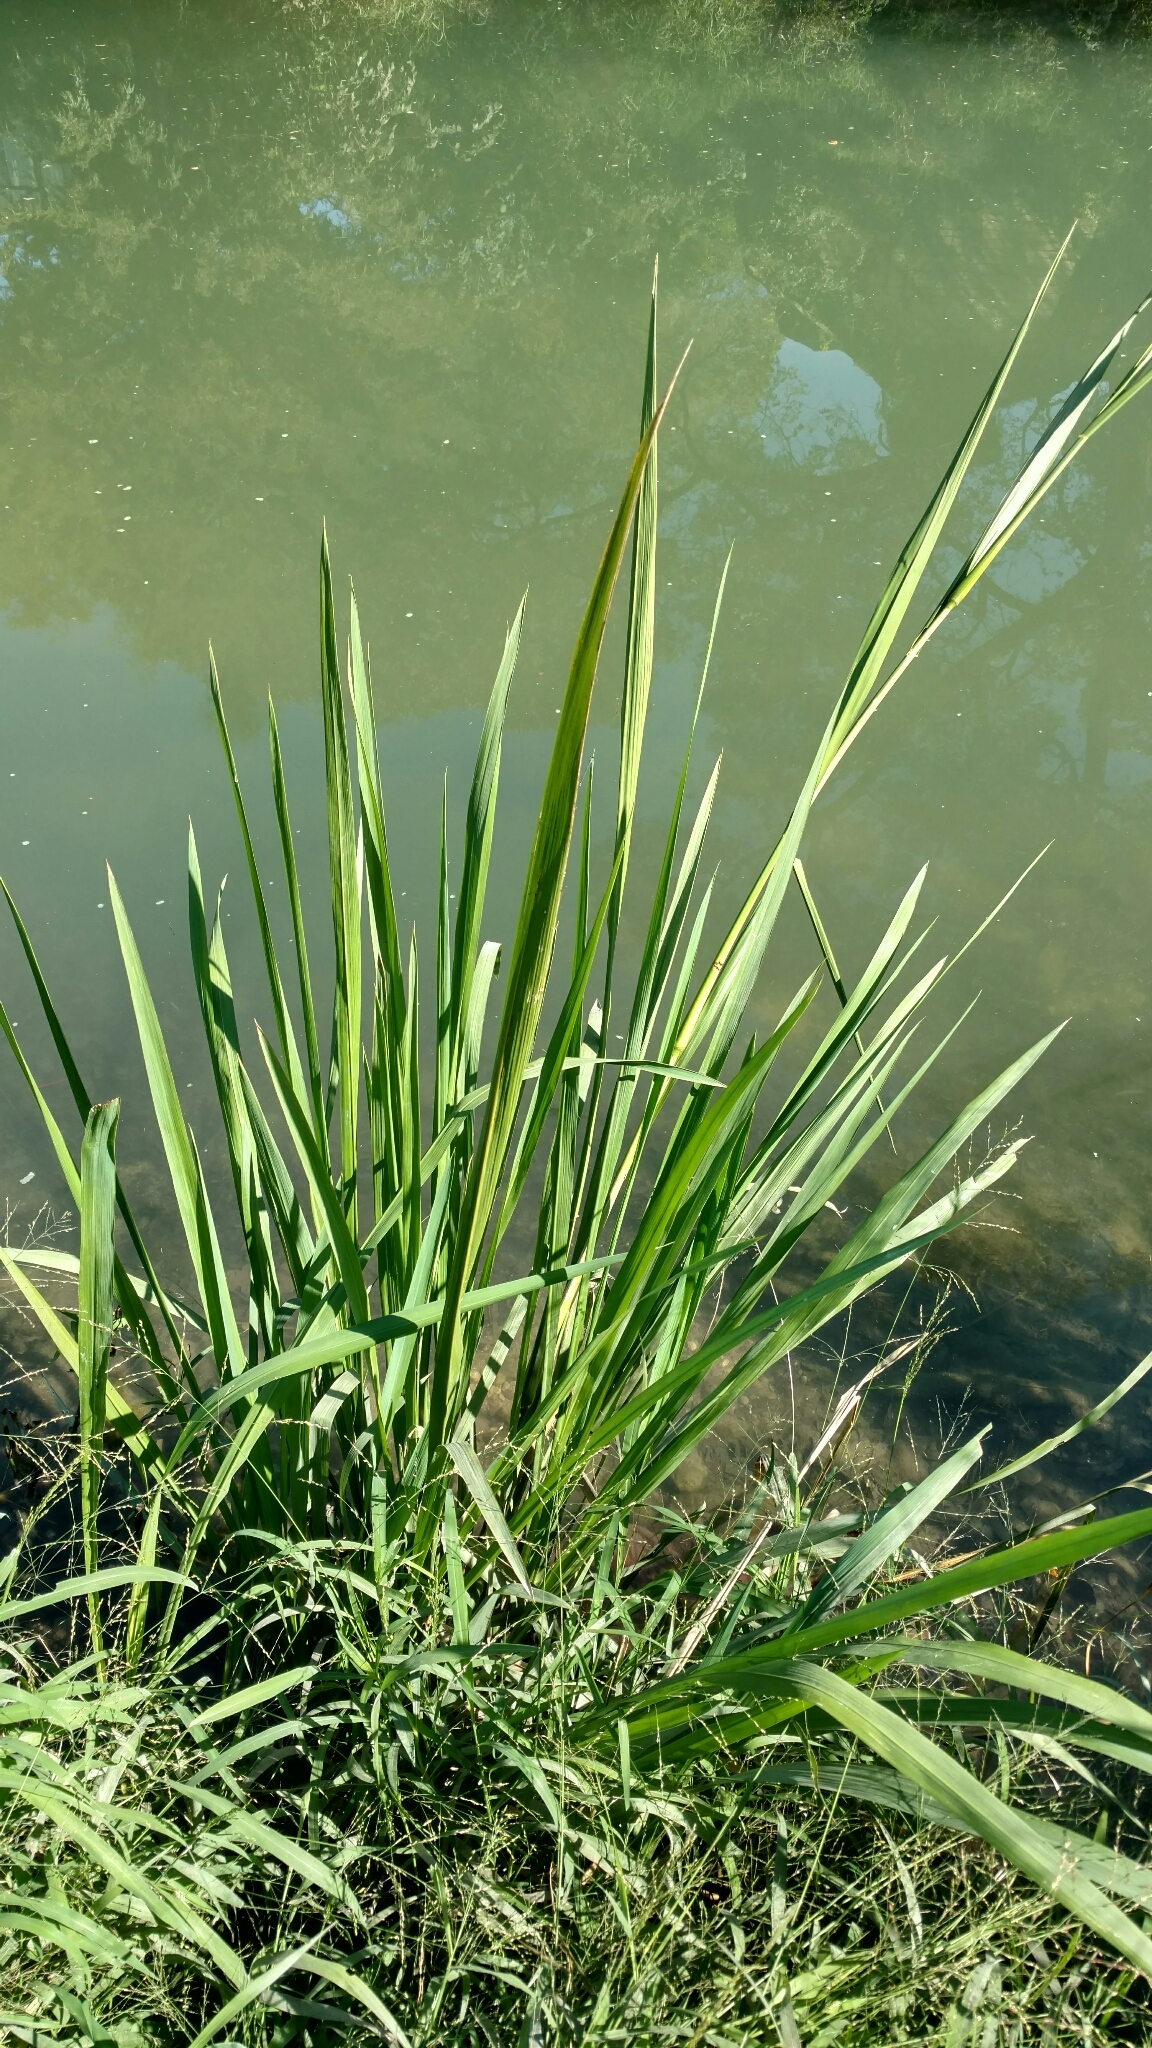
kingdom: Plantae
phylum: Tracheophyta
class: Liliopsida
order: Poales
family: Poaceae
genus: Zizaniopsis
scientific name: Zizaniopsis miliacea
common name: Giant-cutgrass
